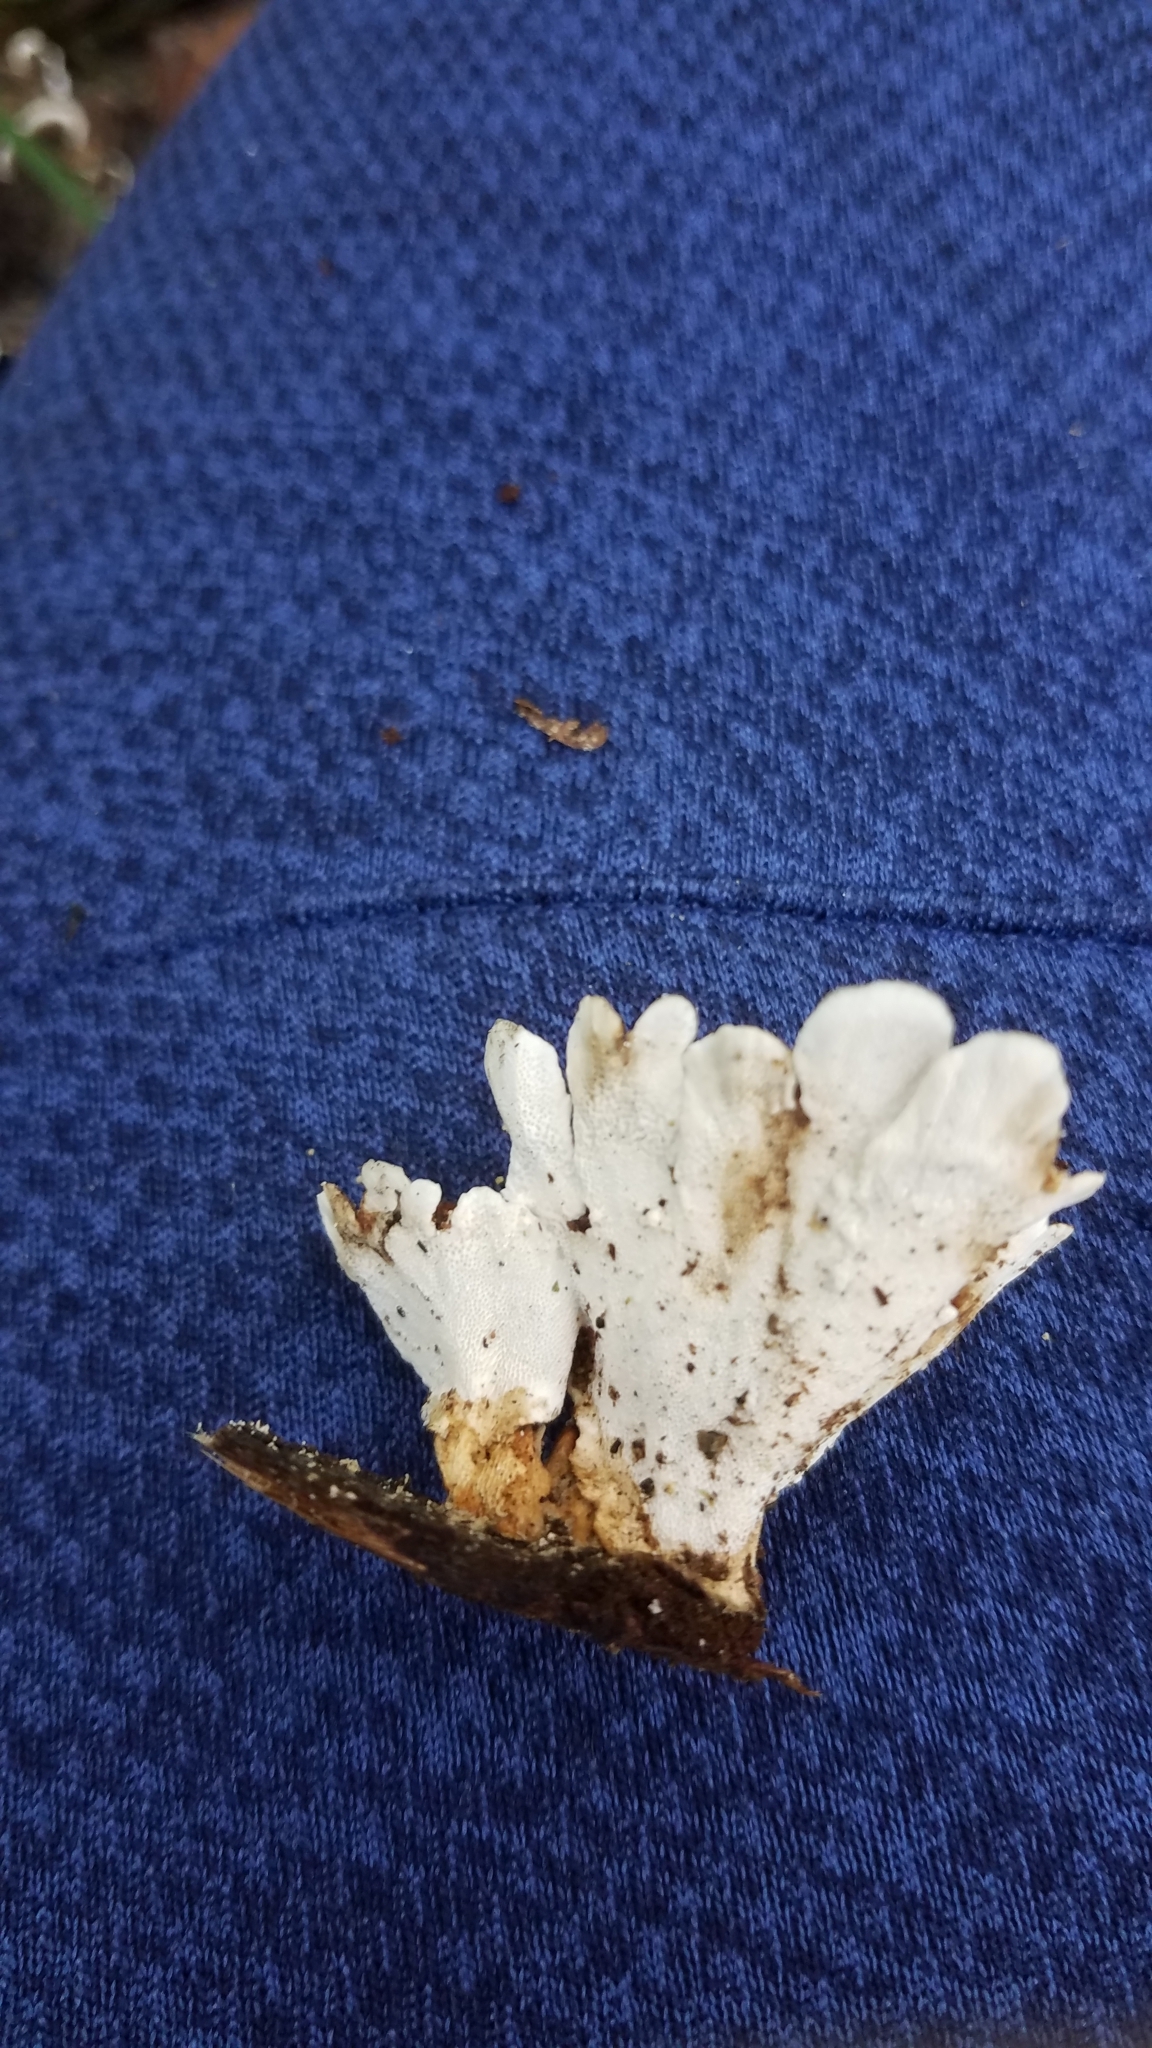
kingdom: Fungi
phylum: Basidiomycota
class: Agaricomycetes
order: Polyporales
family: Polyporaceae
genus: Trametes
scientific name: Trametes versicolor
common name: Turkeytail
